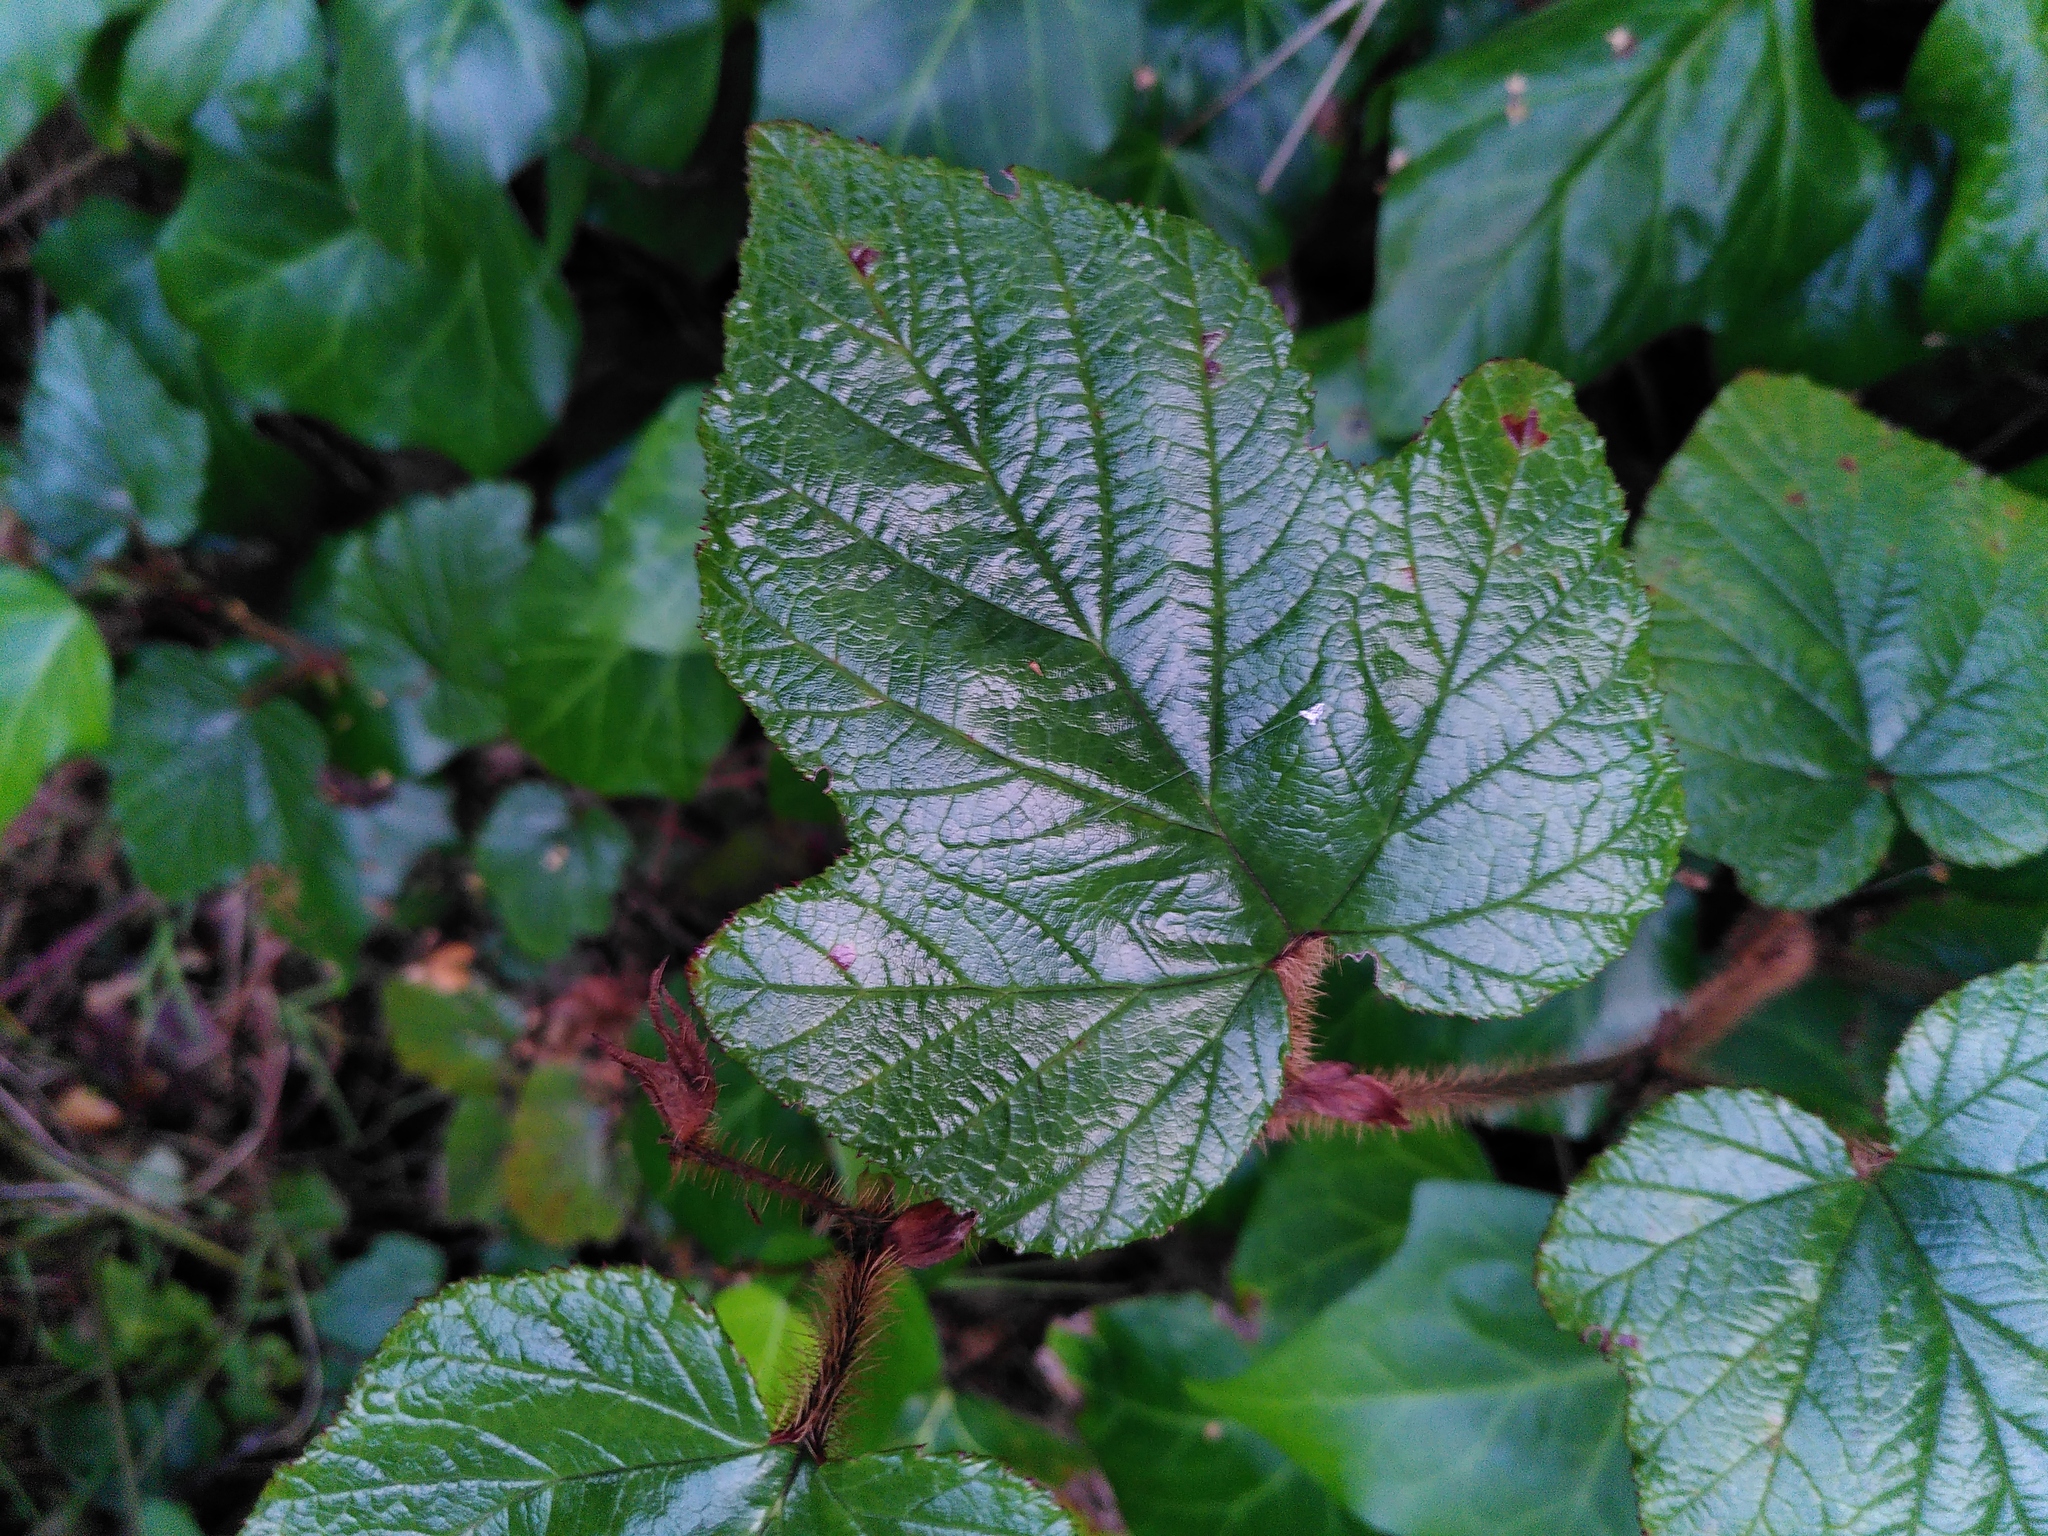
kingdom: Plantae
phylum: Tracheophyta
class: Magnoliopsida
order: Rosales
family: Rosaceae
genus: Rubus
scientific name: Rubus tricolor
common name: Chinese bramble
